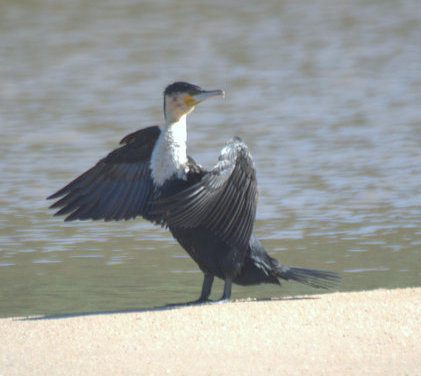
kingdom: Animalia
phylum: Chordata
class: Aves
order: Suliformes
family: Phalacrocoracidae
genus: Phalacrocorax
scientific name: Phalacrocorax carbo
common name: Great cormorant
